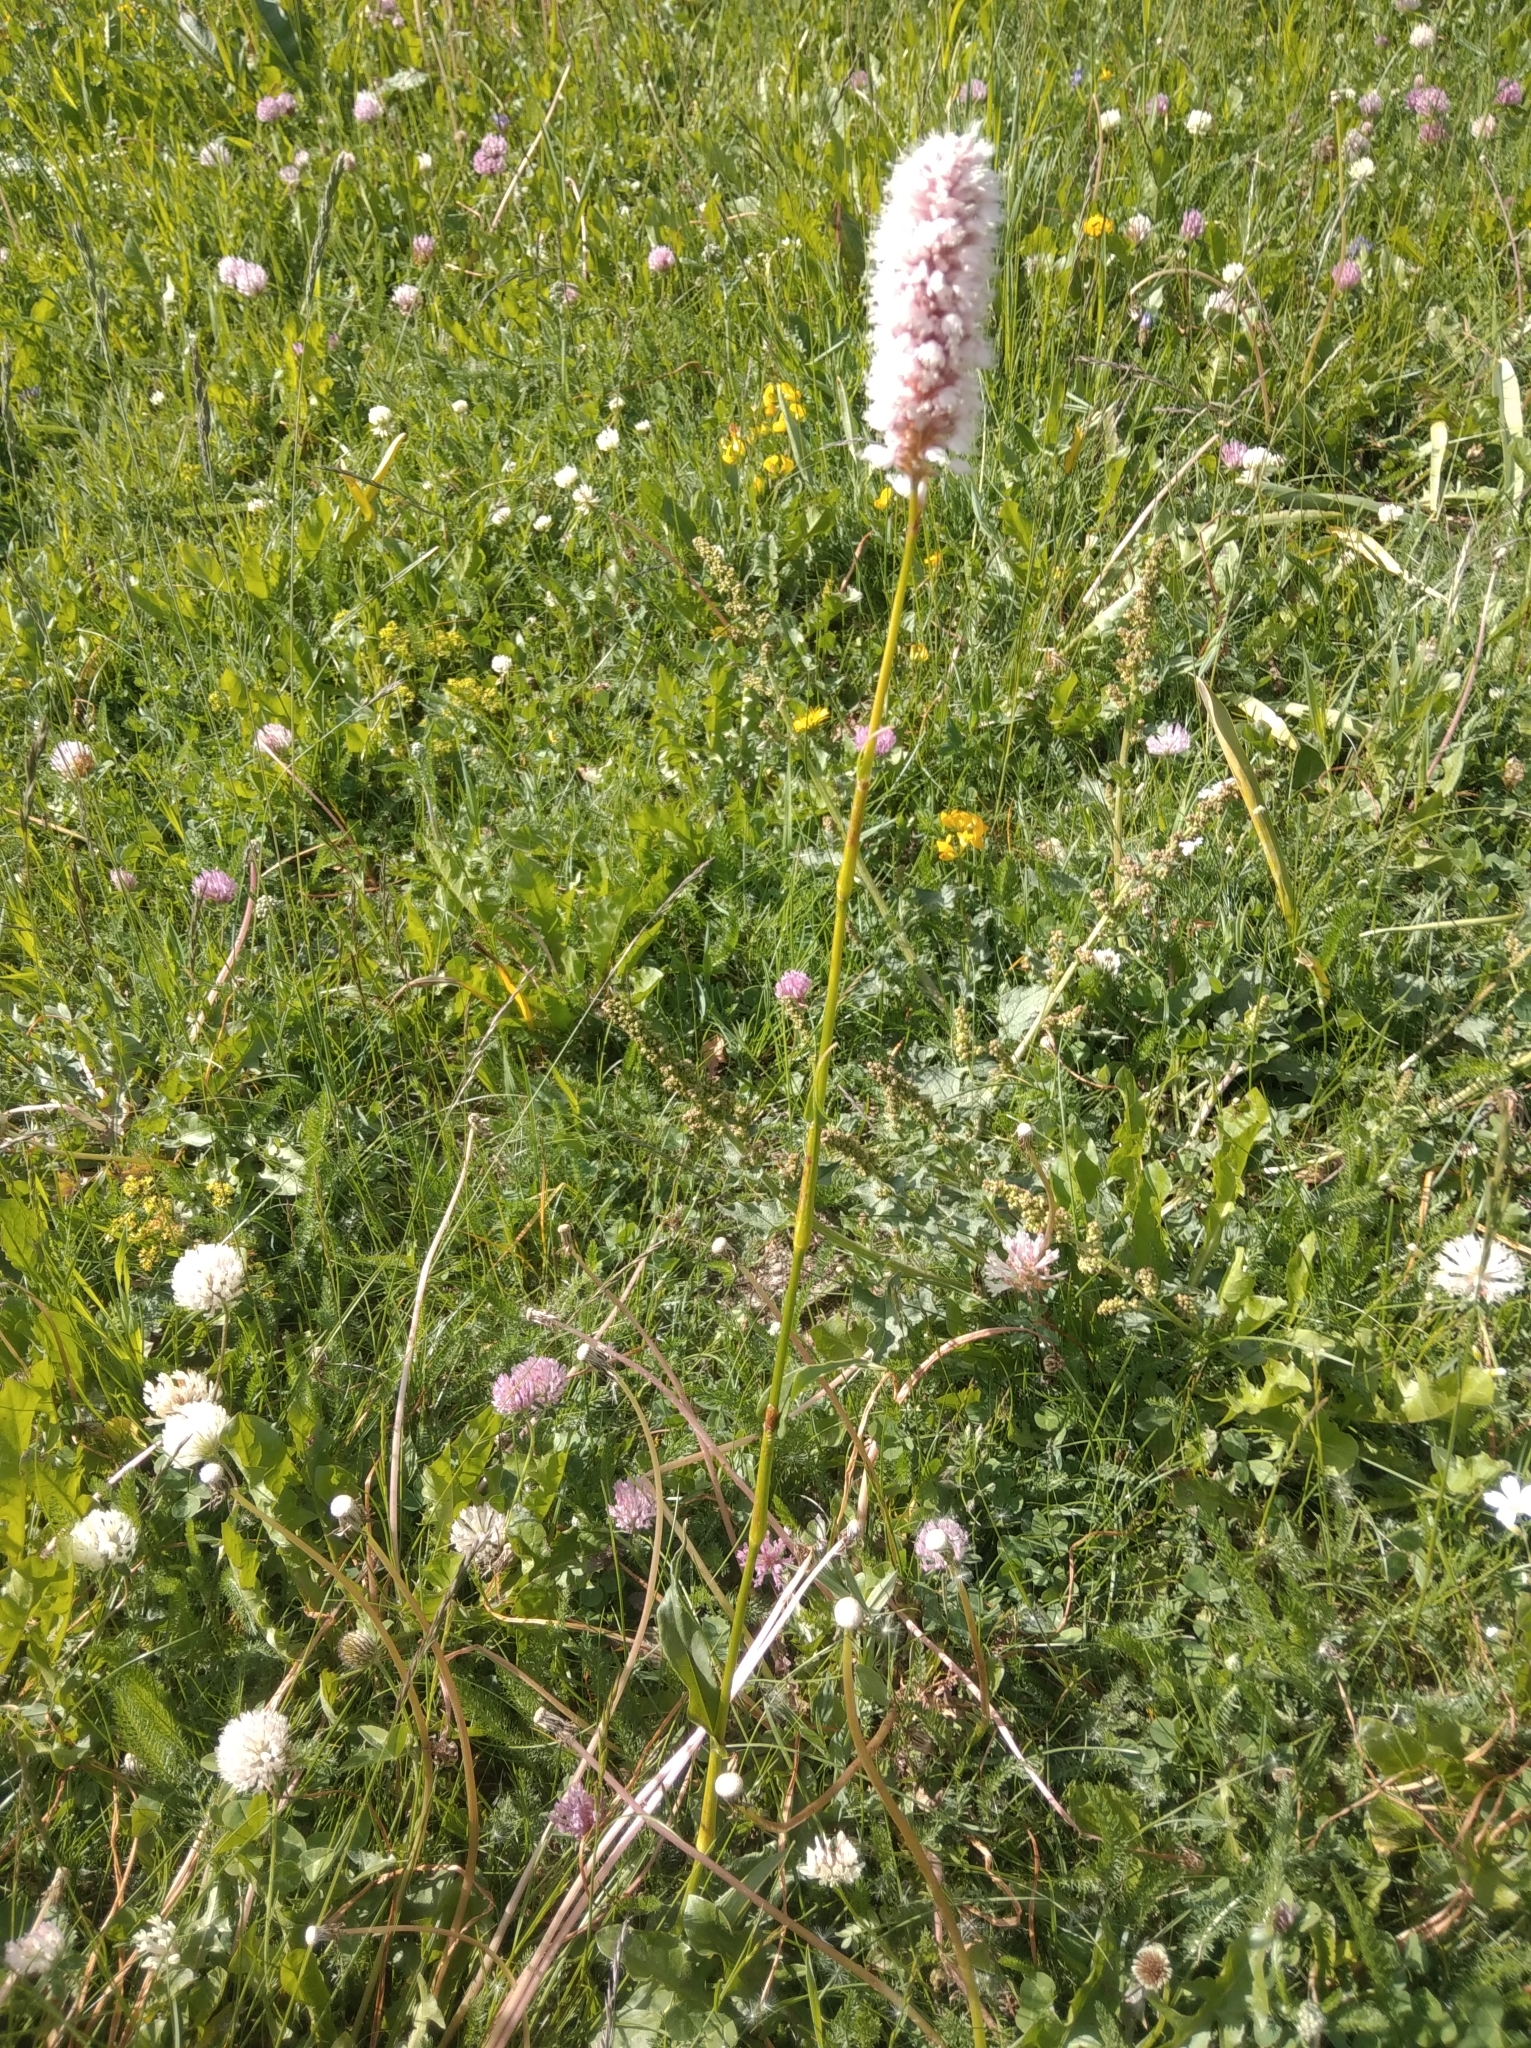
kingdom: Plantae
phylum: Tracheophyta
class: Magnoliopsida
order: Caryophyllales
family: Polygonaceae
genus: Bistorta
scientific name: Bistorta officinalis
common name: Common bistort
